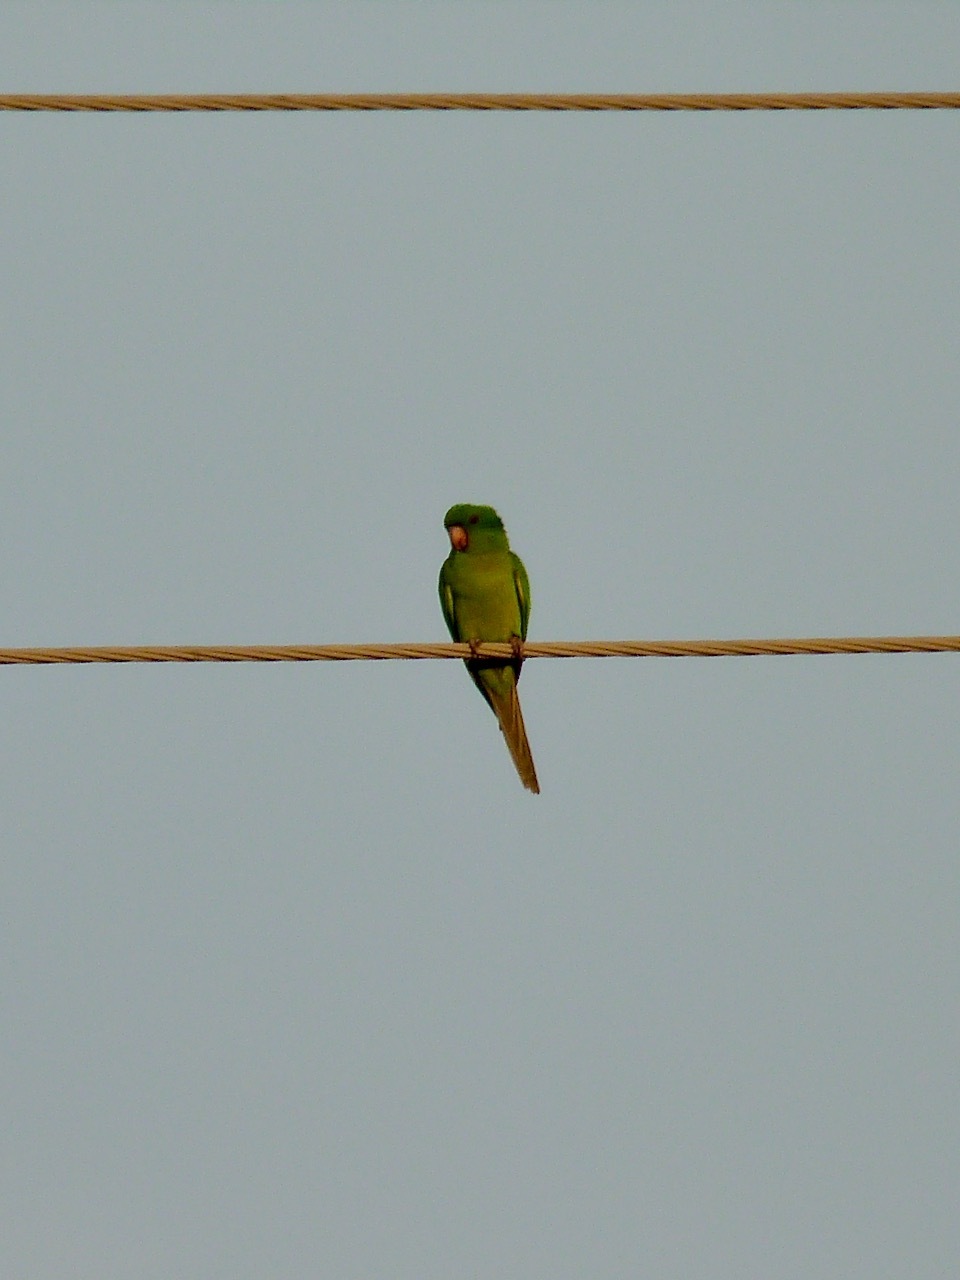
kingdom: Animalia
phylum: Chordata
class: Aves
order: Psittaciformes
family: Psittacidae
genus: Aratinga
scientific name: Aratinga holochlora
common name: Green parakeet
